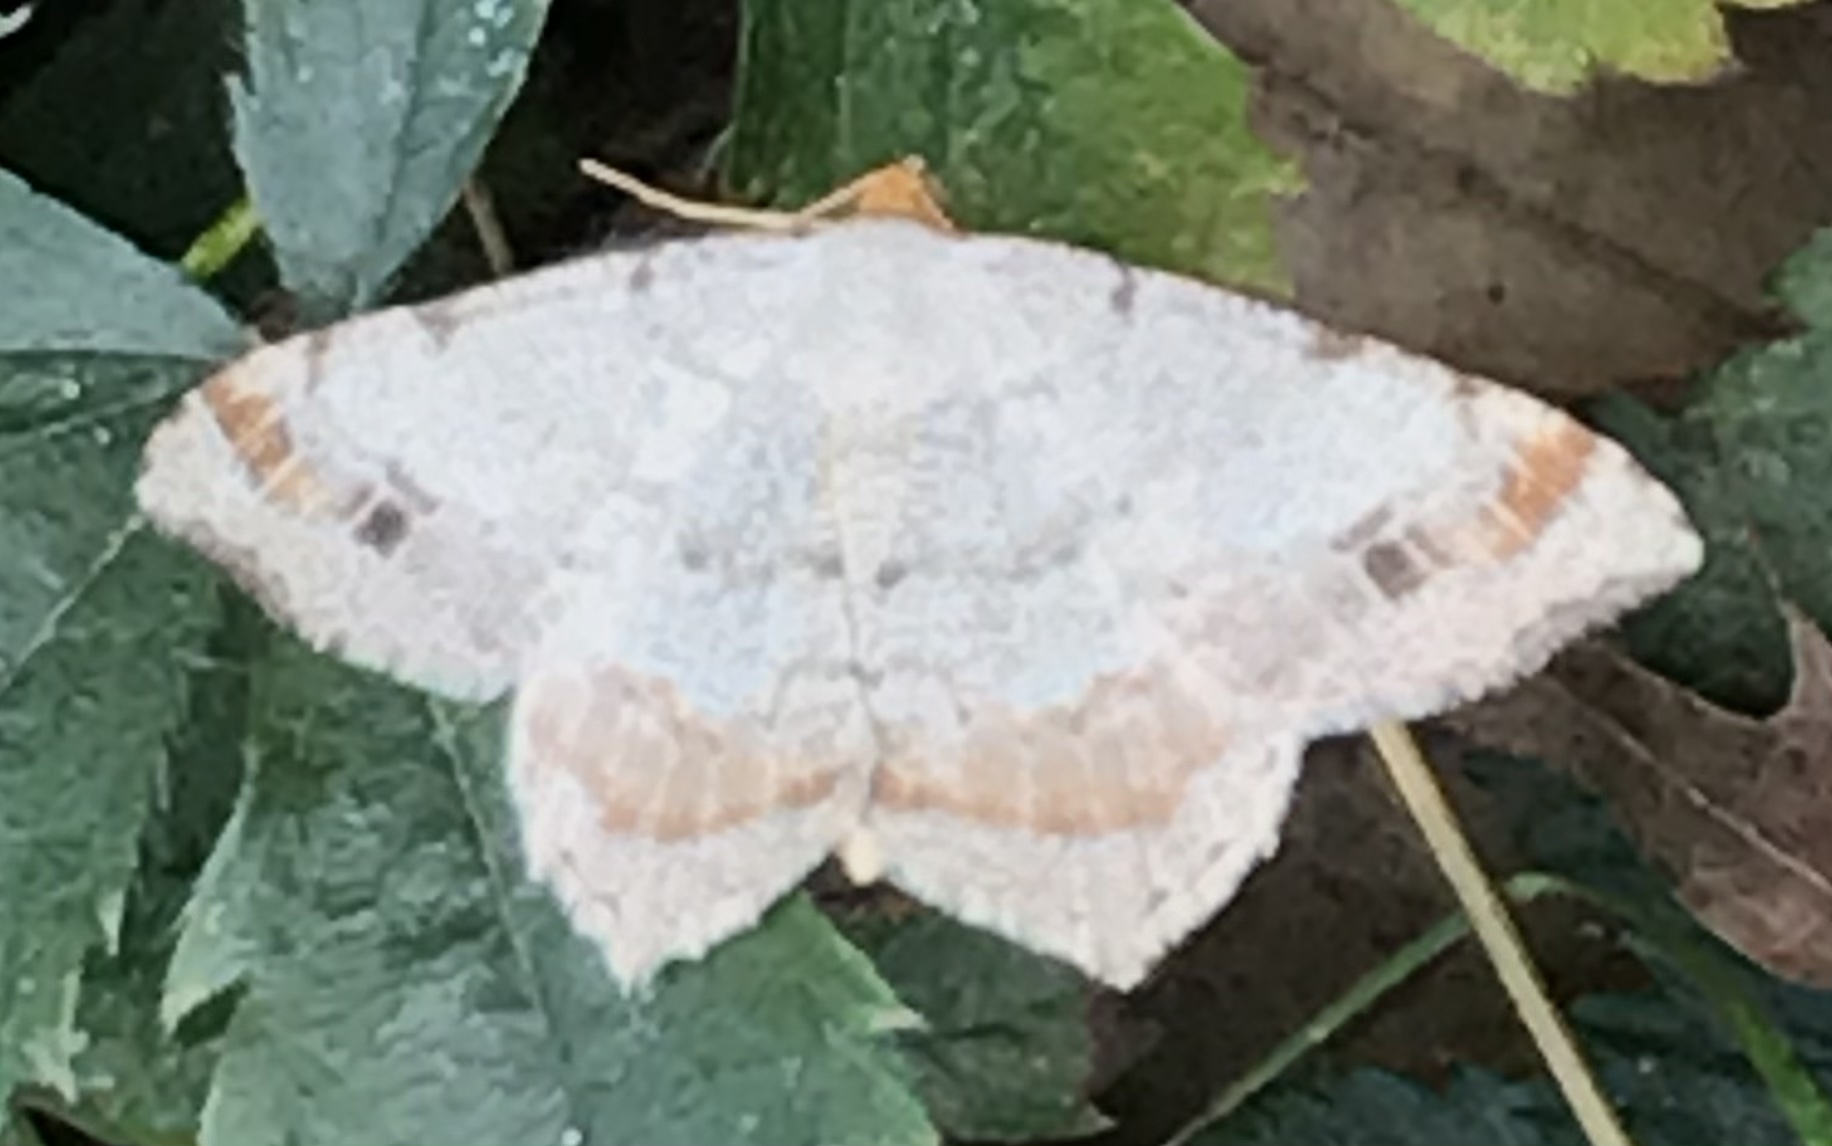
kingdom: Animalia
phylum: Arthropoda
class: Insecta
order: Lepidoptera
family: Geometridae
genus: Macaria
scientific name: Macaria bisignata
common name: Red-headed inchworm
